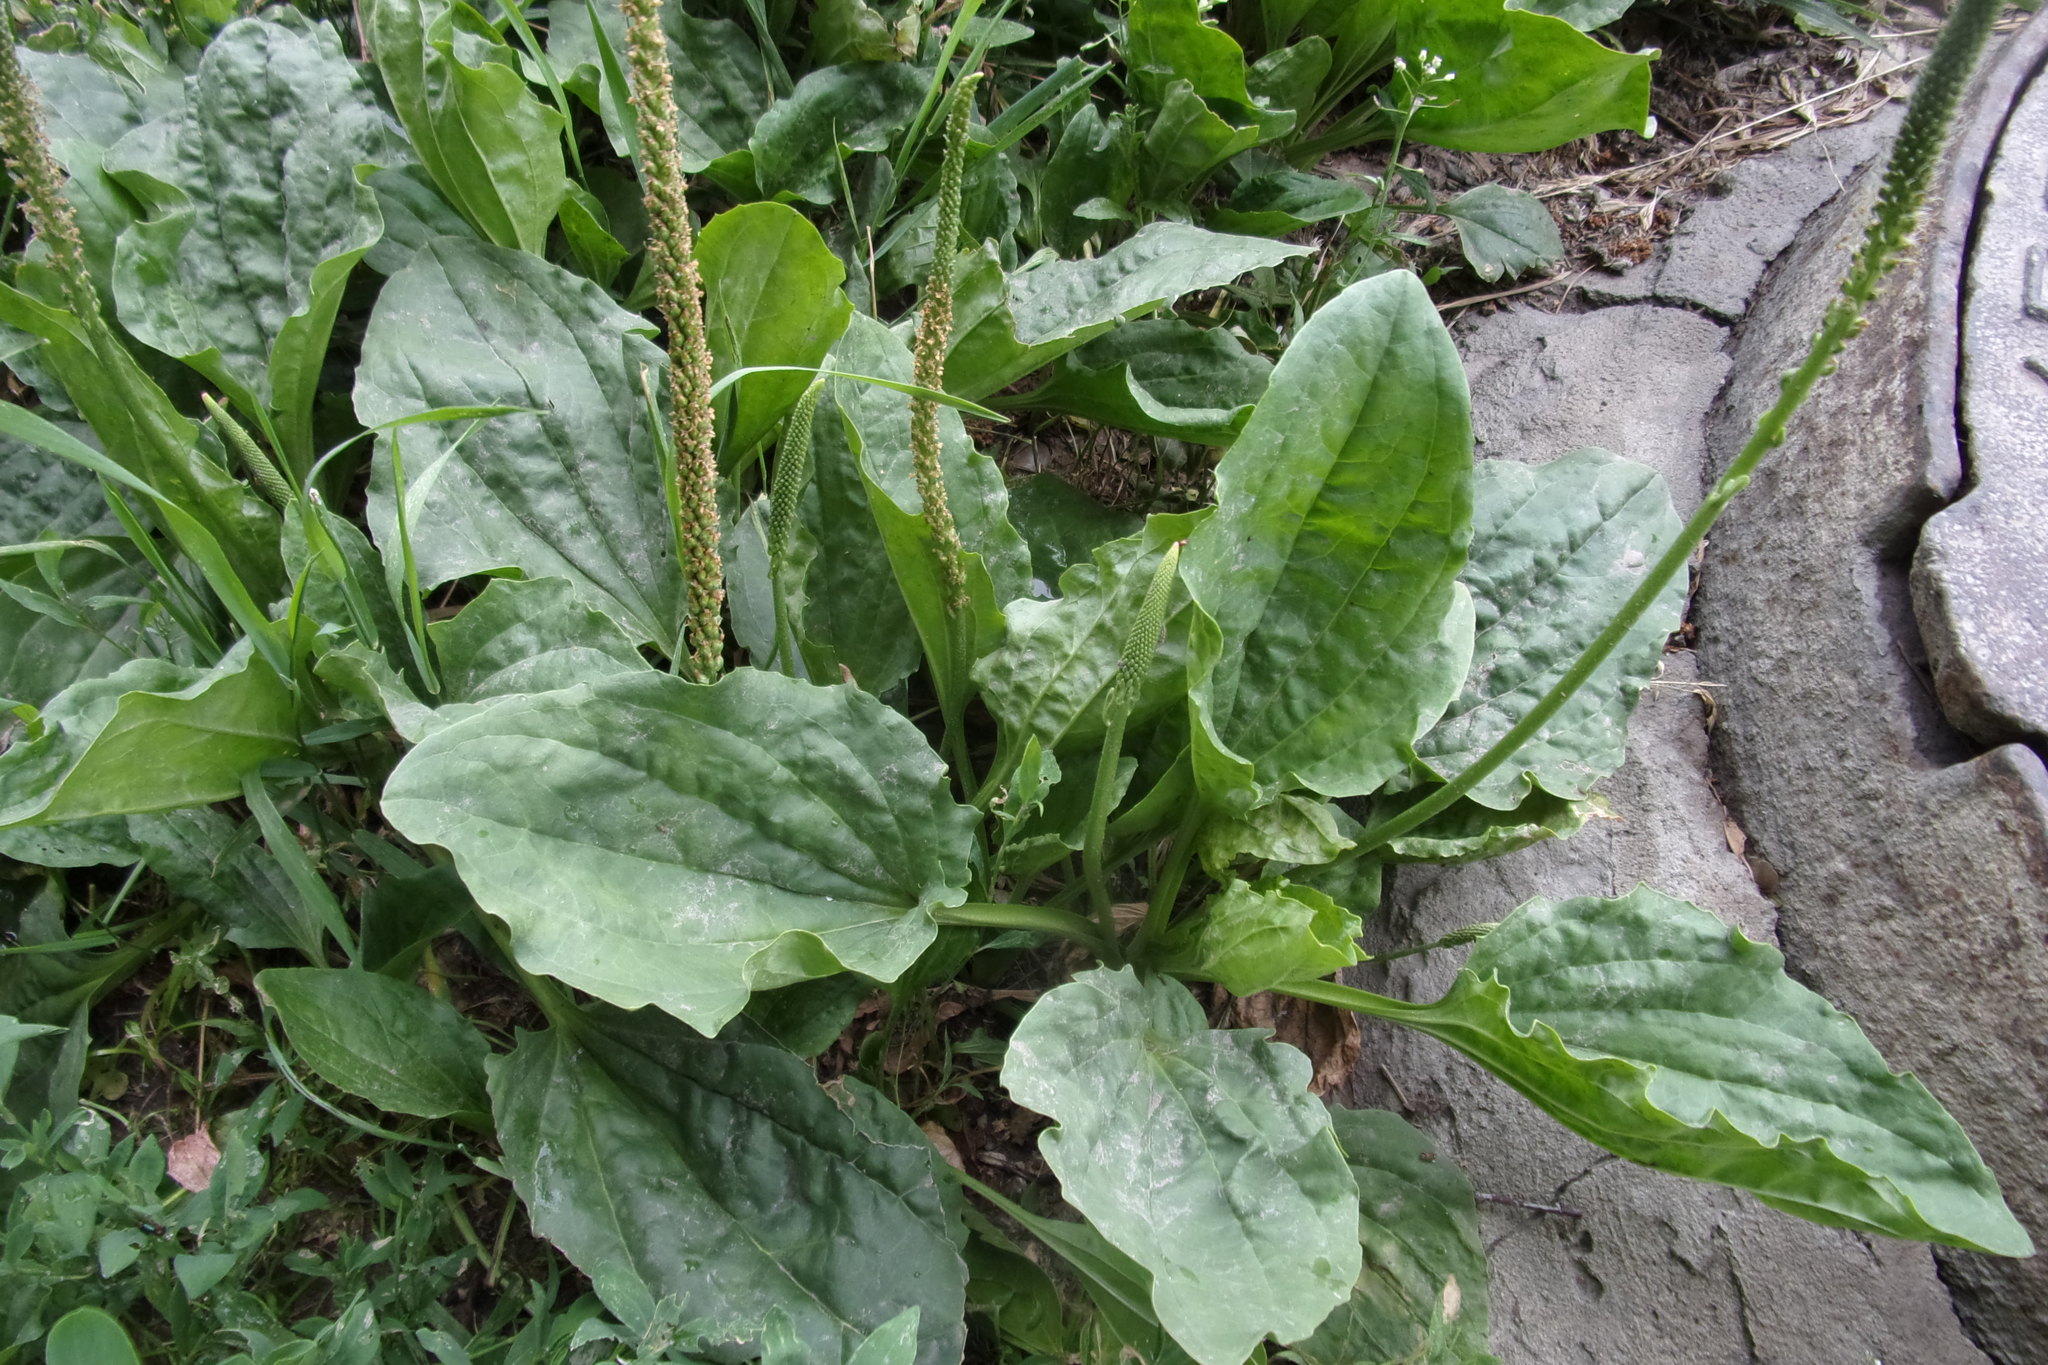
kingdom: Plantae
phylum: Tracheophyta
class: Magnoliopsida
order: Lamiales
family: Plantaginaceae
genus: Plantago
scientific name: Plantago major
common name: Common plantain
